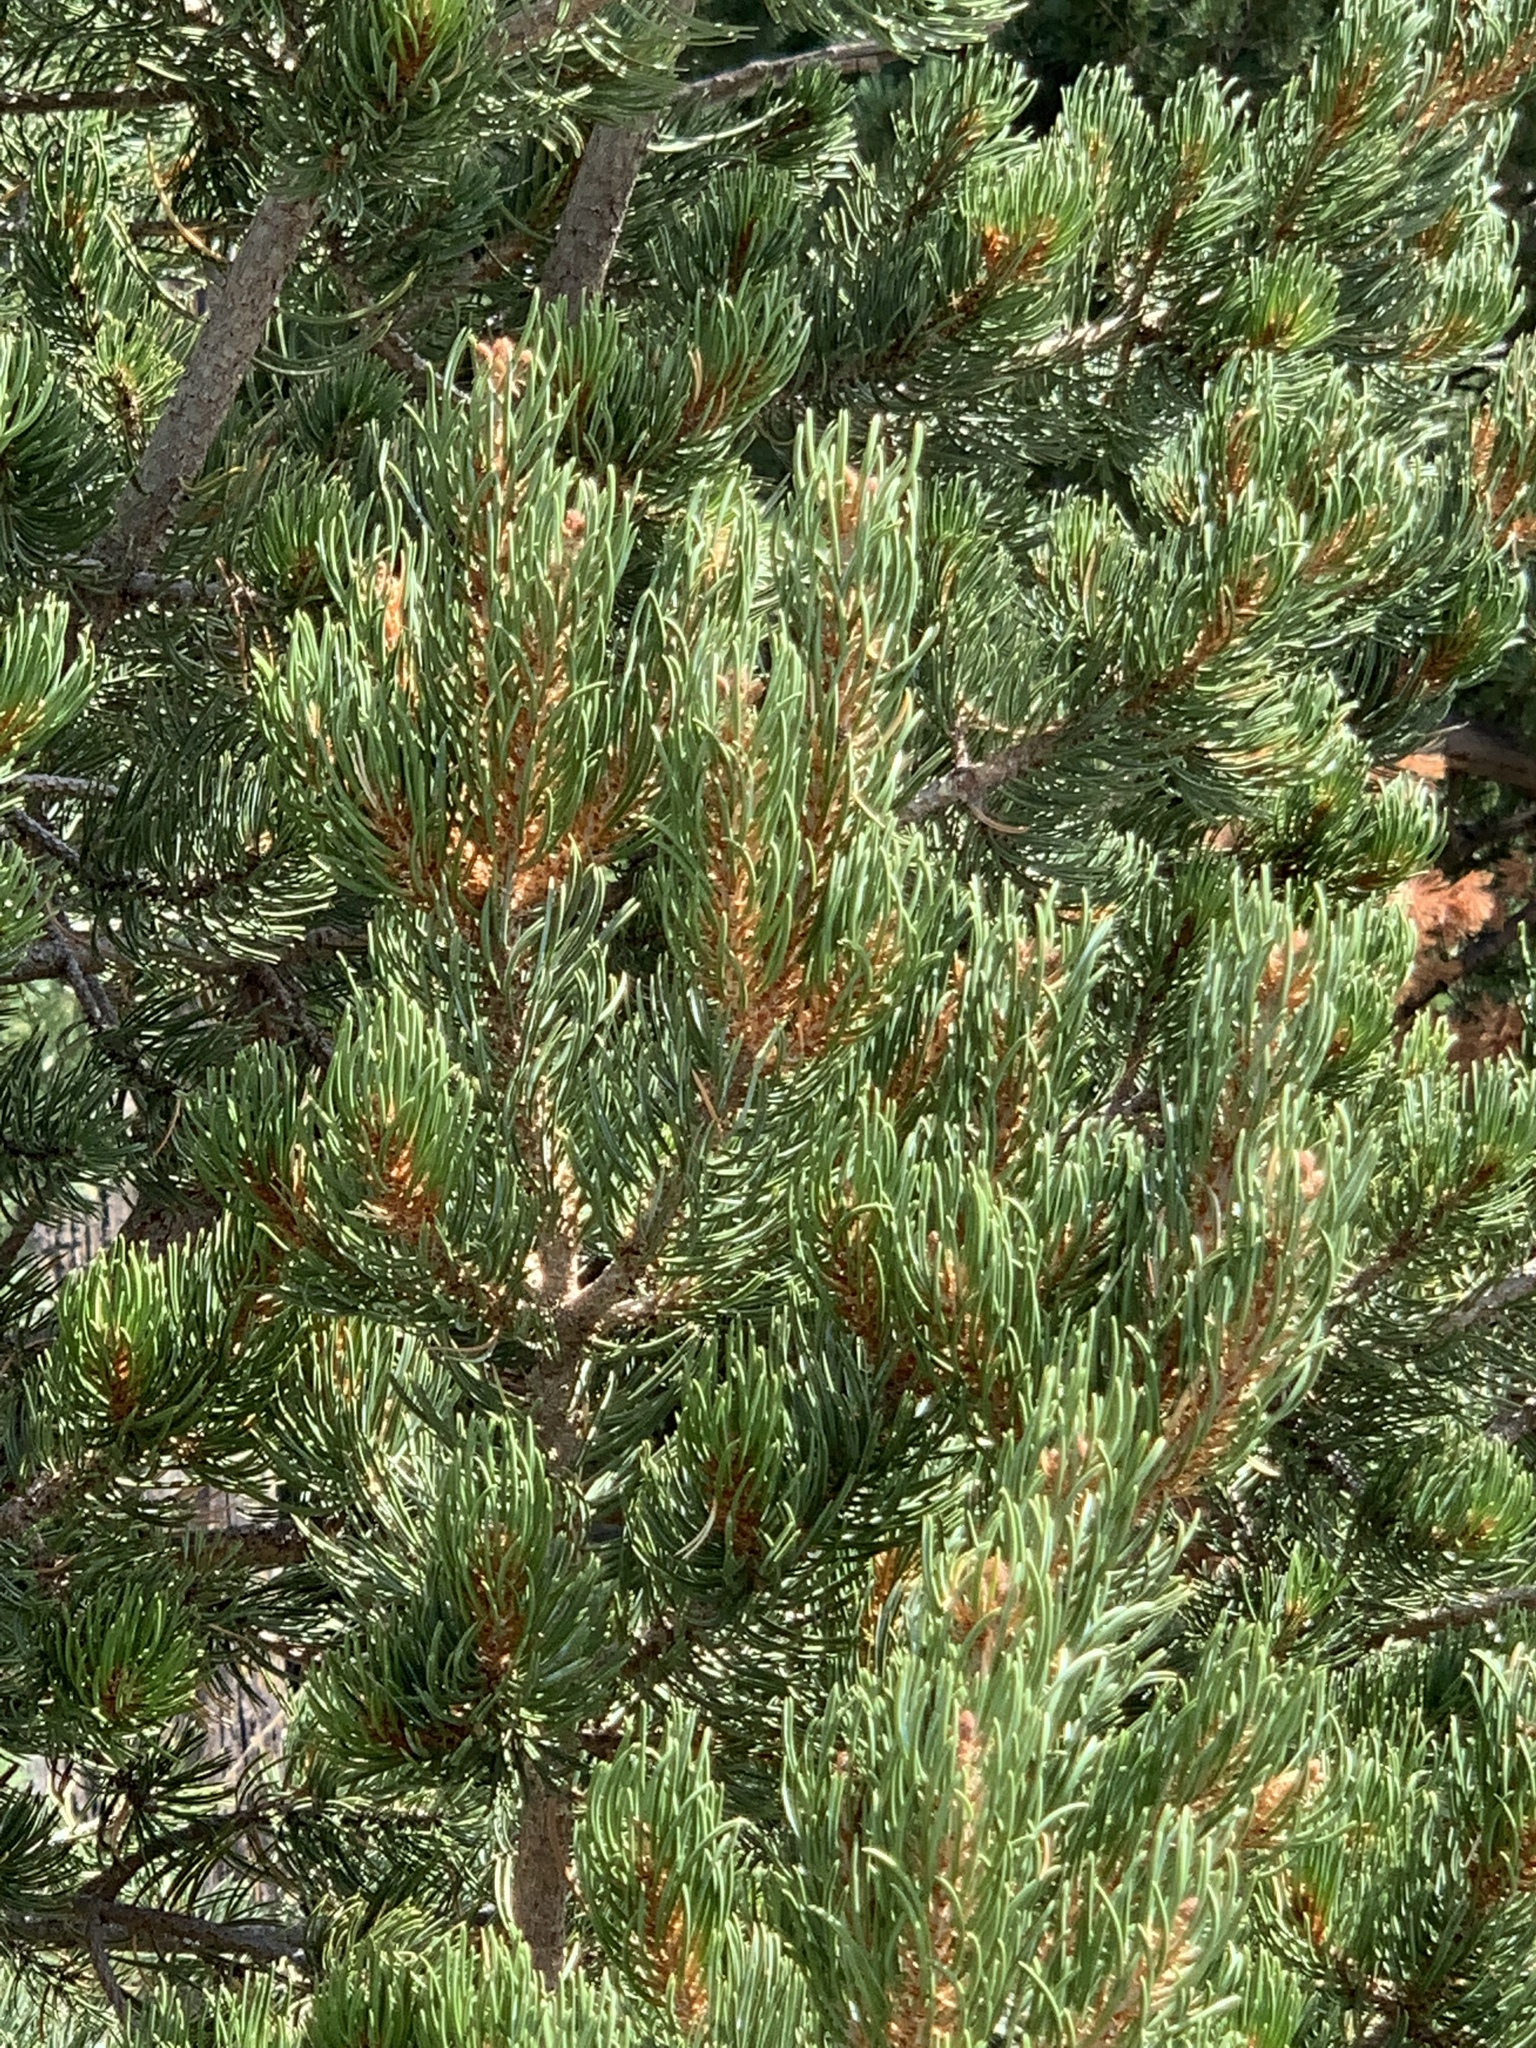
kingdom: Plantae
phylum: Tracheophyta
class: Pinopsida
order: Pinales
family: Pinaceae
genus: Pinus
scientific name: Pinus edulis
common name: Colorado pinyon
